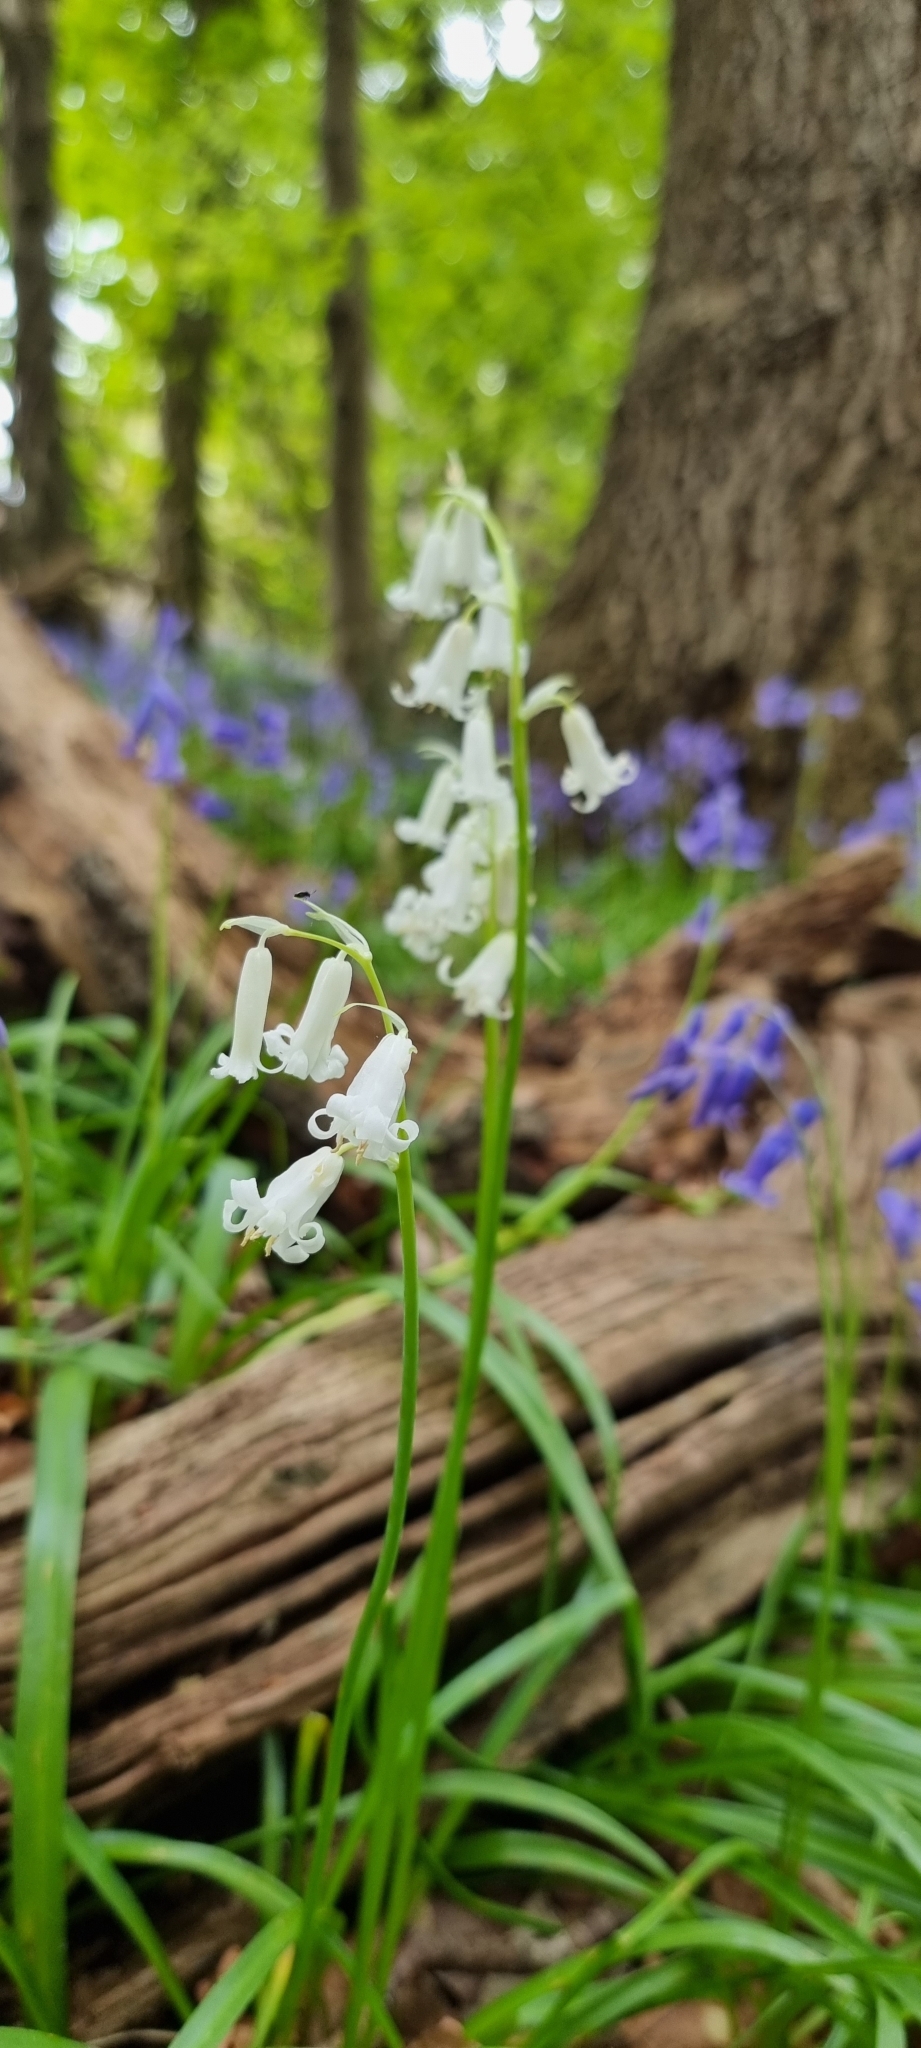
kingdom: Plantae
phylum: Tracheophyta
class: Liliopsida
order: Asparagales
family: Asparagaceae
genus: Hyacinthoides
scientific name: Hyacinthoides non-scripta
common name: Bluebell
